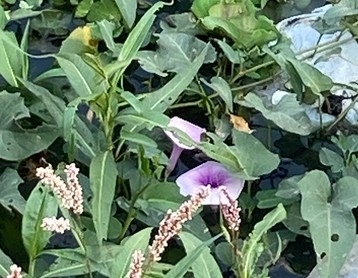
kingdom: Plantae
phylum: Tracheophyta
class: Magnoliopsida
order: Solanales
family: Convolvulaceae
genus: Ipomoea
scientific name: Ipomoea aquatica
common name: Swamp morning-glory
